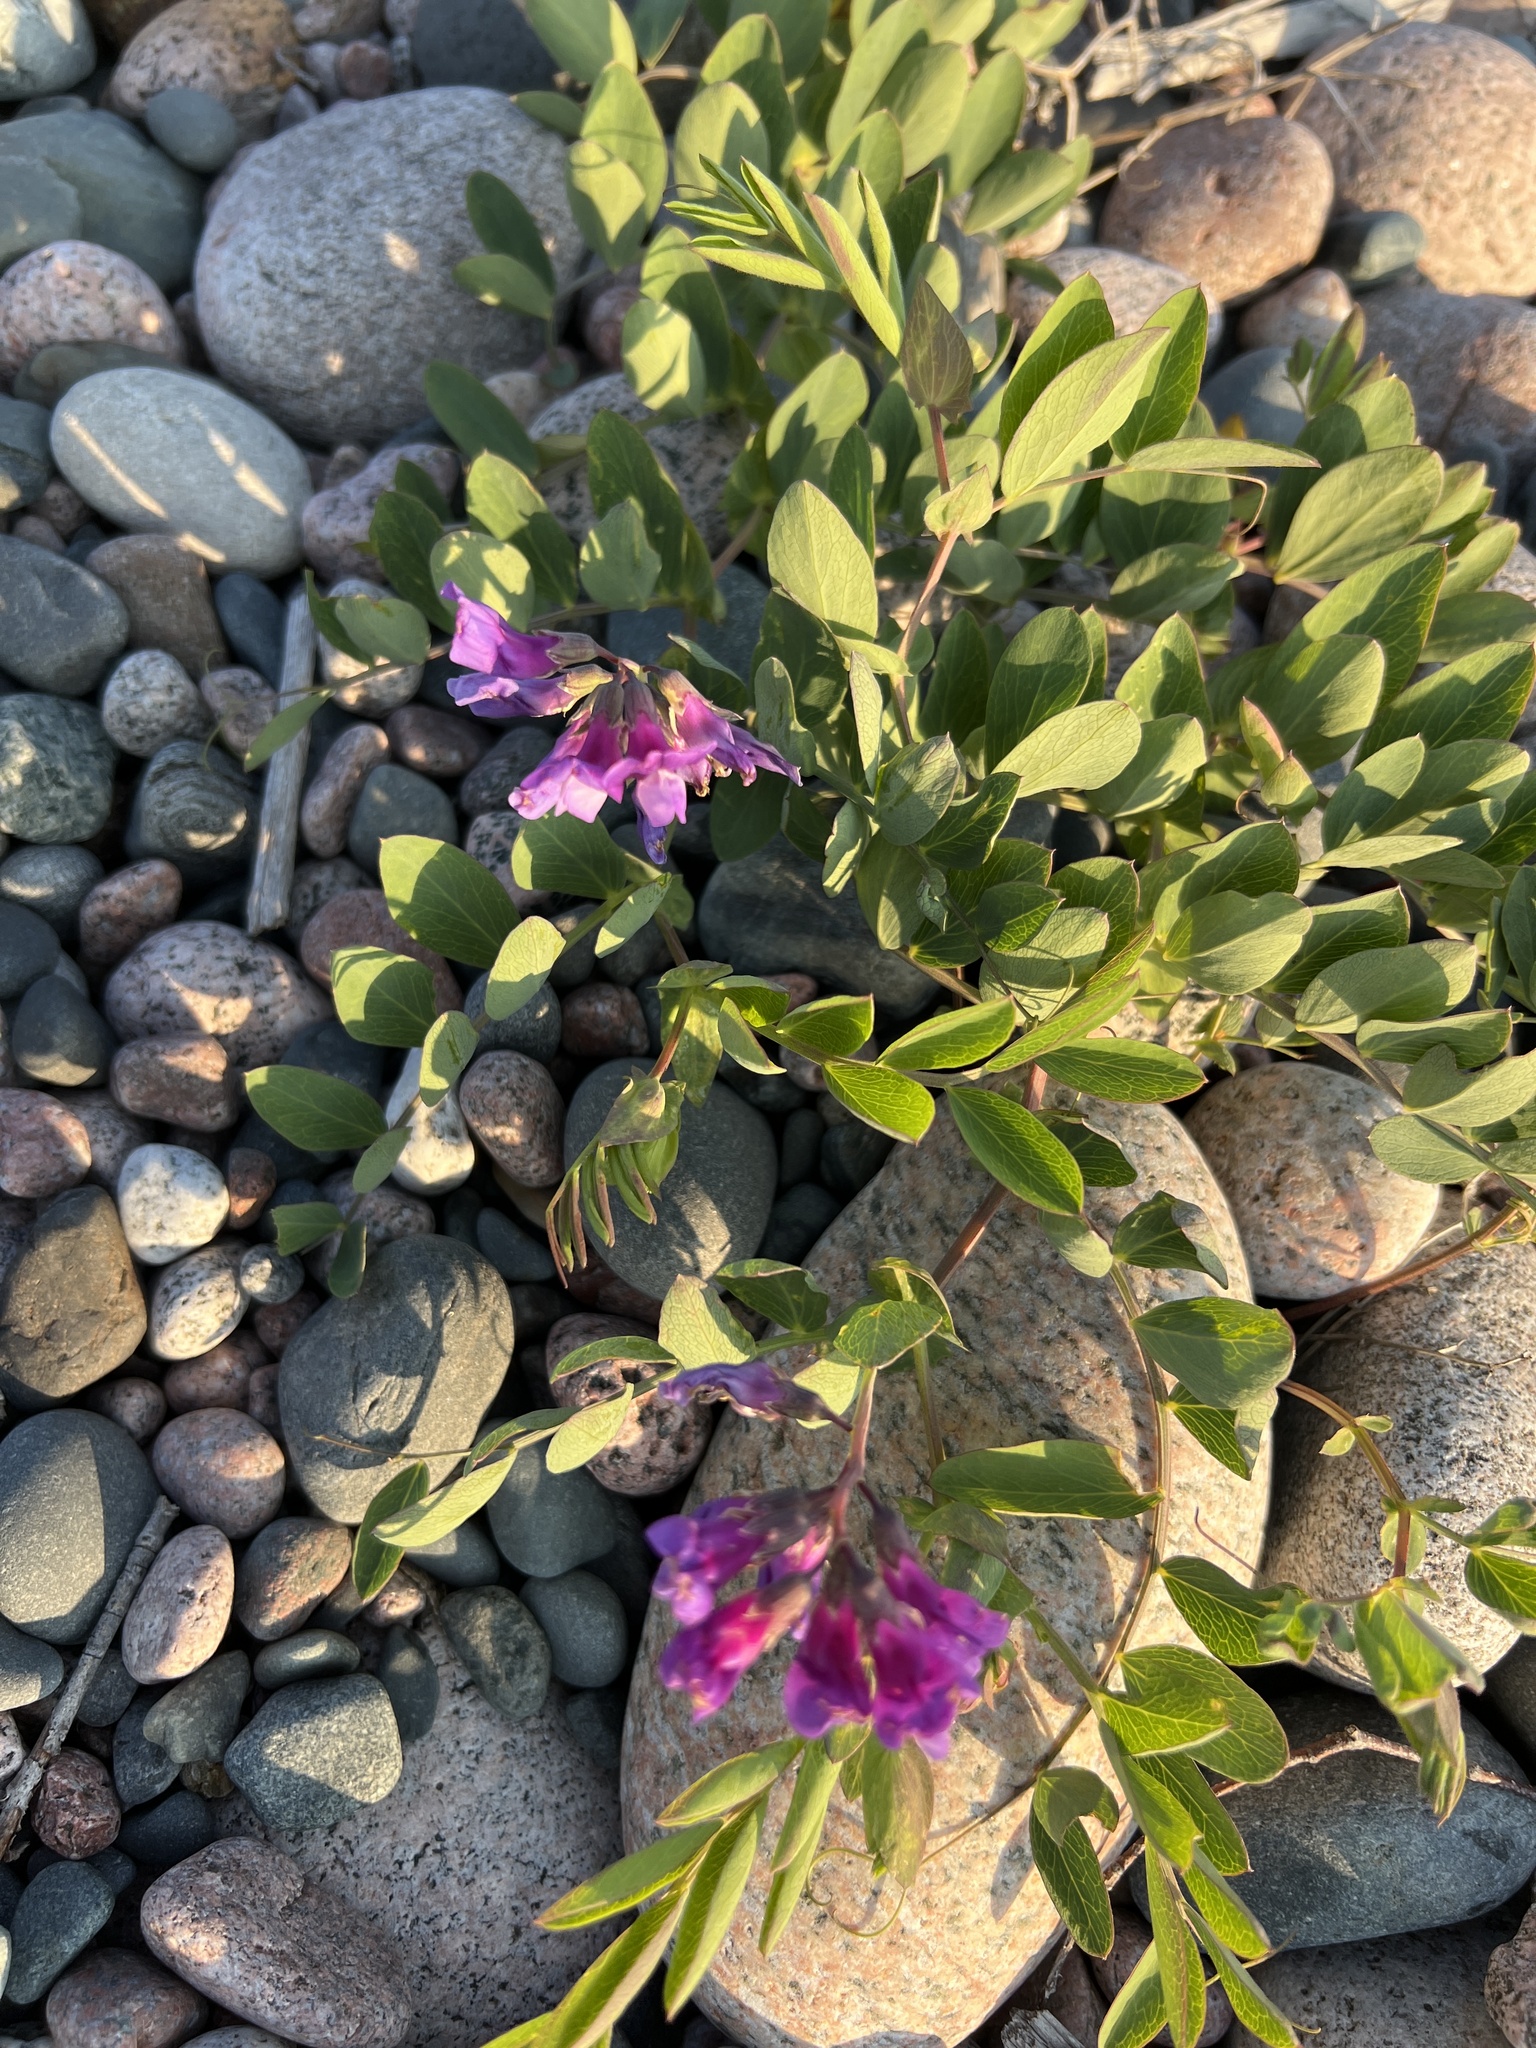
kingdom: Plantae
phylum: Tracheophyta
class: Magnoliopsida
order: Fabales
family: Fabaceae
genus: Lathyrus
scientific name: Lathyrus japonicus
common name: Sea pea
